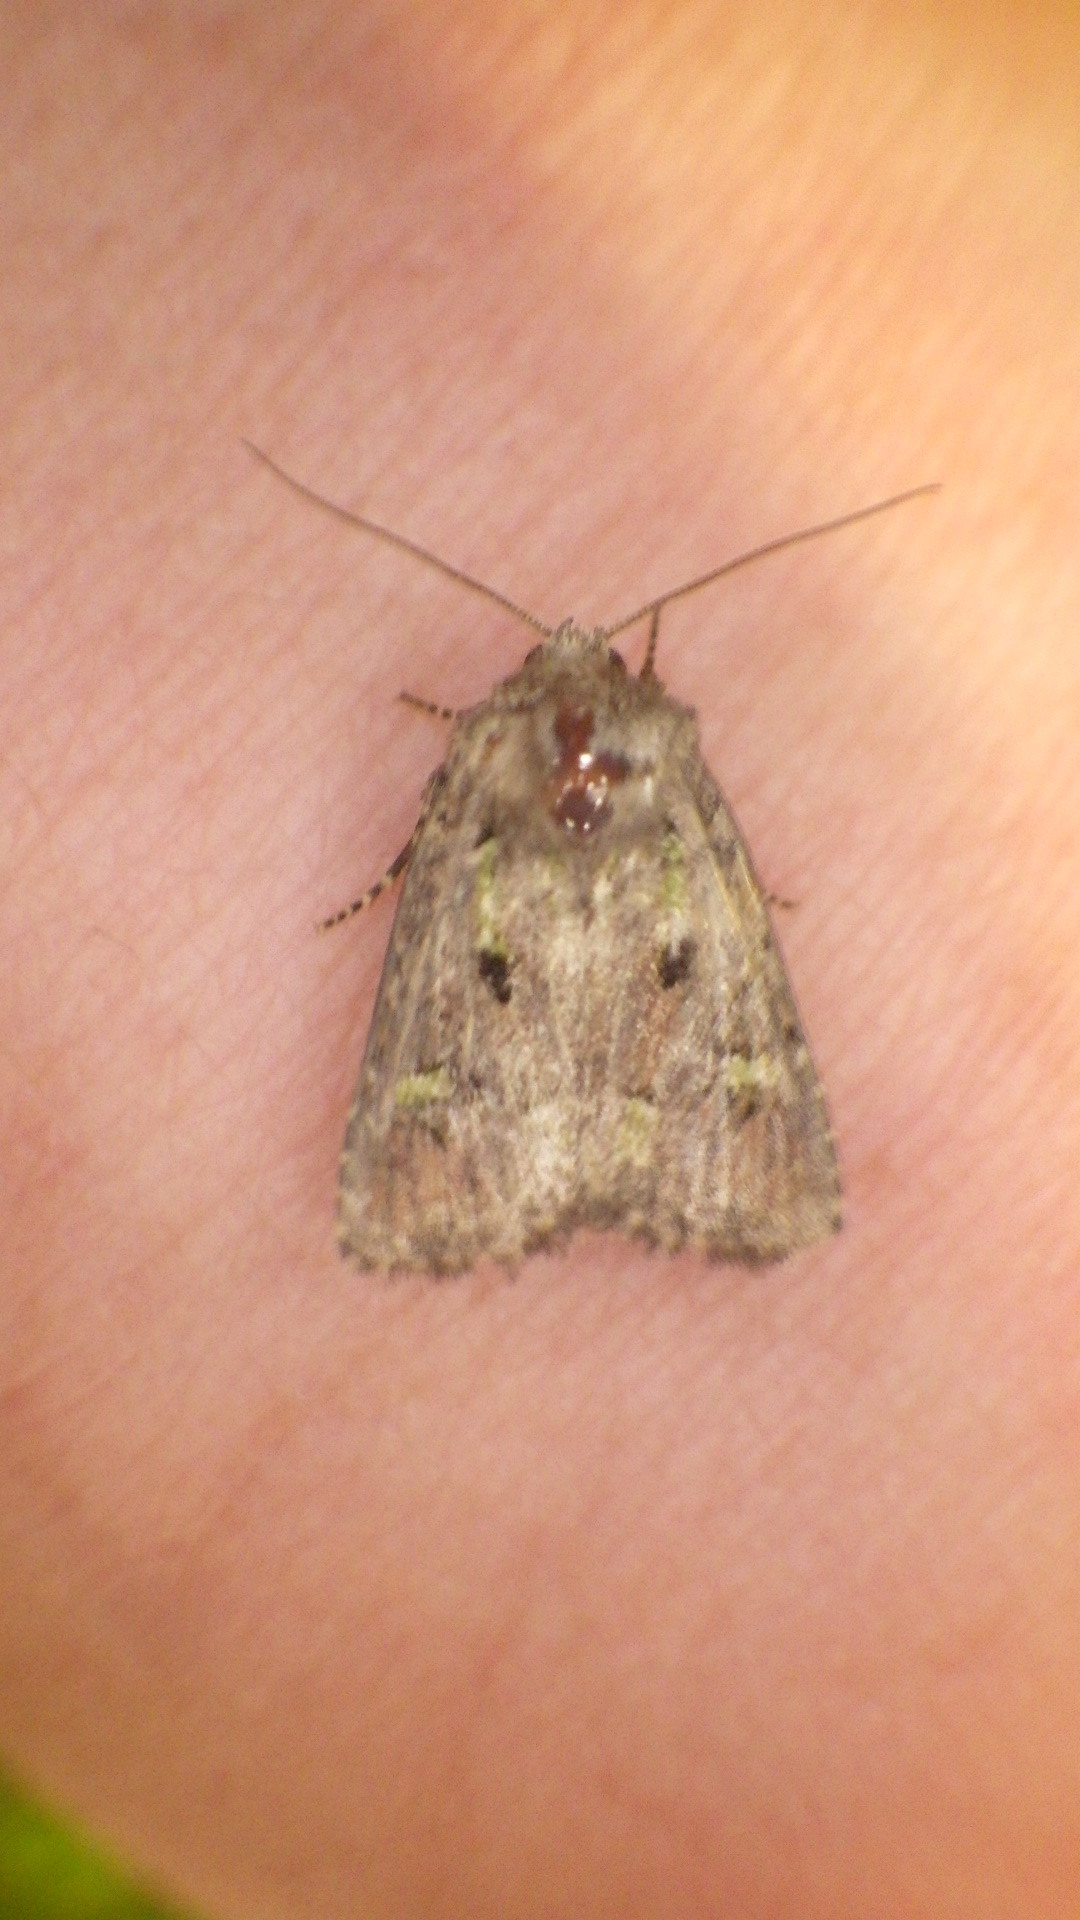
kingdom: Animalia
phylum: Arthropoda
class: Insecta
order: Lepidoptera
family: Noctuidae
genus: Lacinipolia
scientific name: Lacinipolia renigera
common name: Kidney-spotted minor
